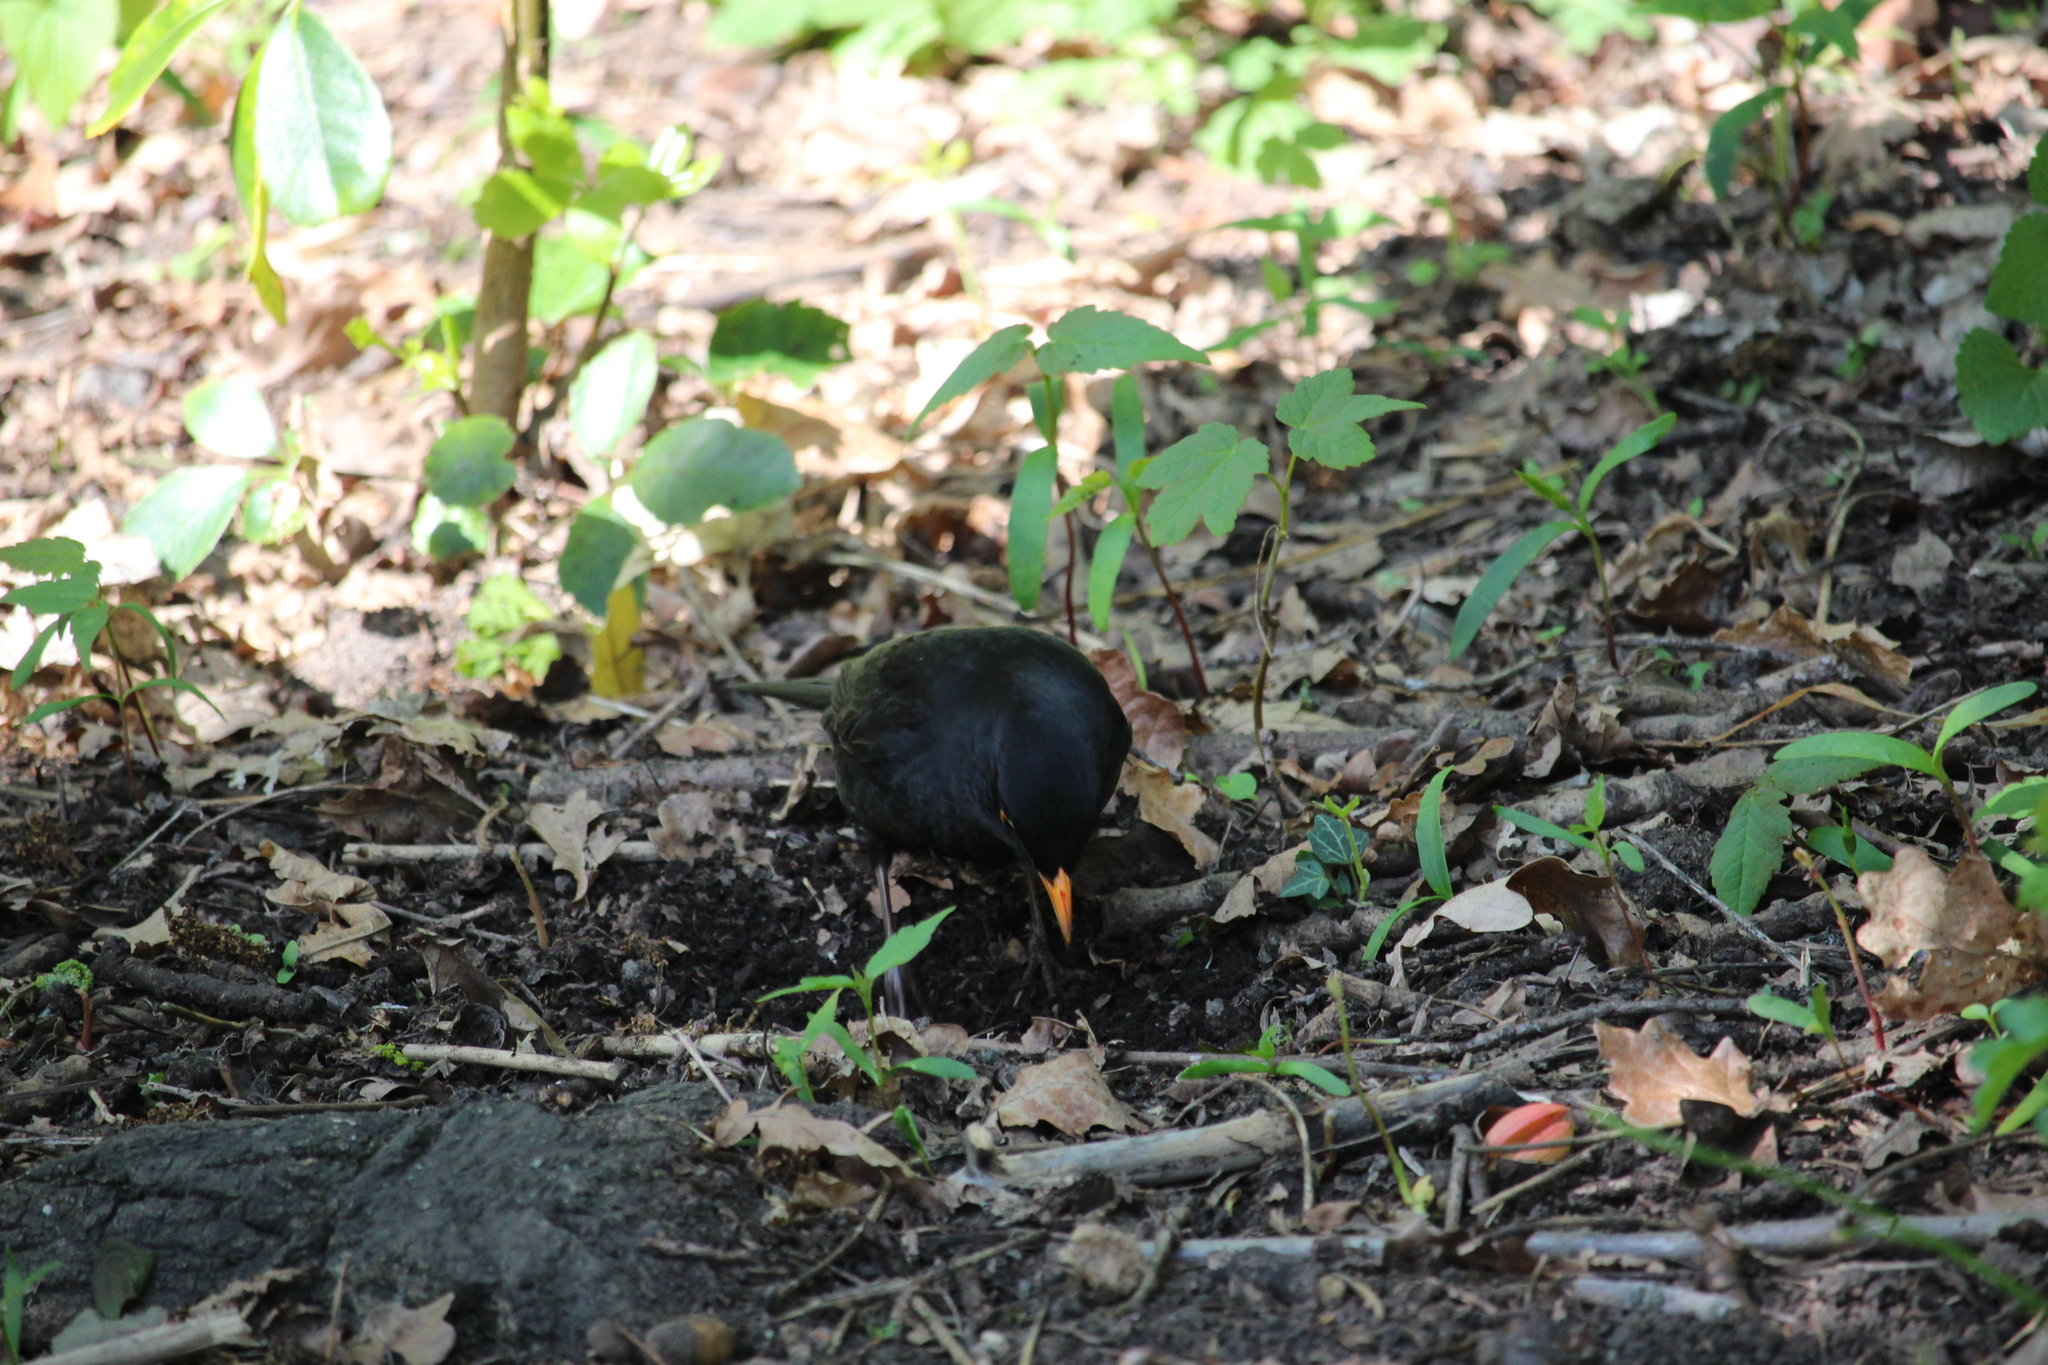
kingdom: Animalia
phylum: Chordata
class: Aves
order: Passeriformes
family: Turdidae
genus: Turdus
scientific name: Turdus merula
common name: Common blackbird
